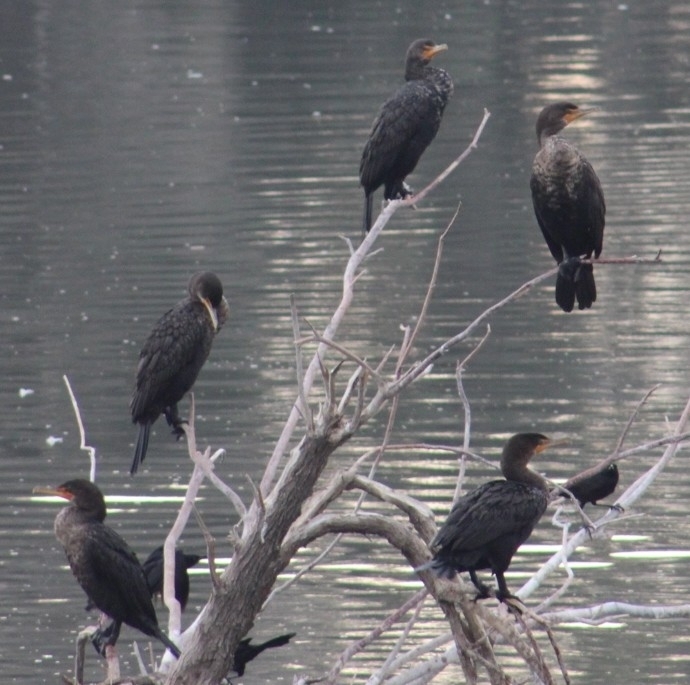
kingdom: Animalia
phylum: Chordata
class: Aves
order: Suliformes
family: Phalacrocoracidae
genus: Phalacrocorax
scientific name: Phalacrocorax auritus
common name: Double-crested cormorant
